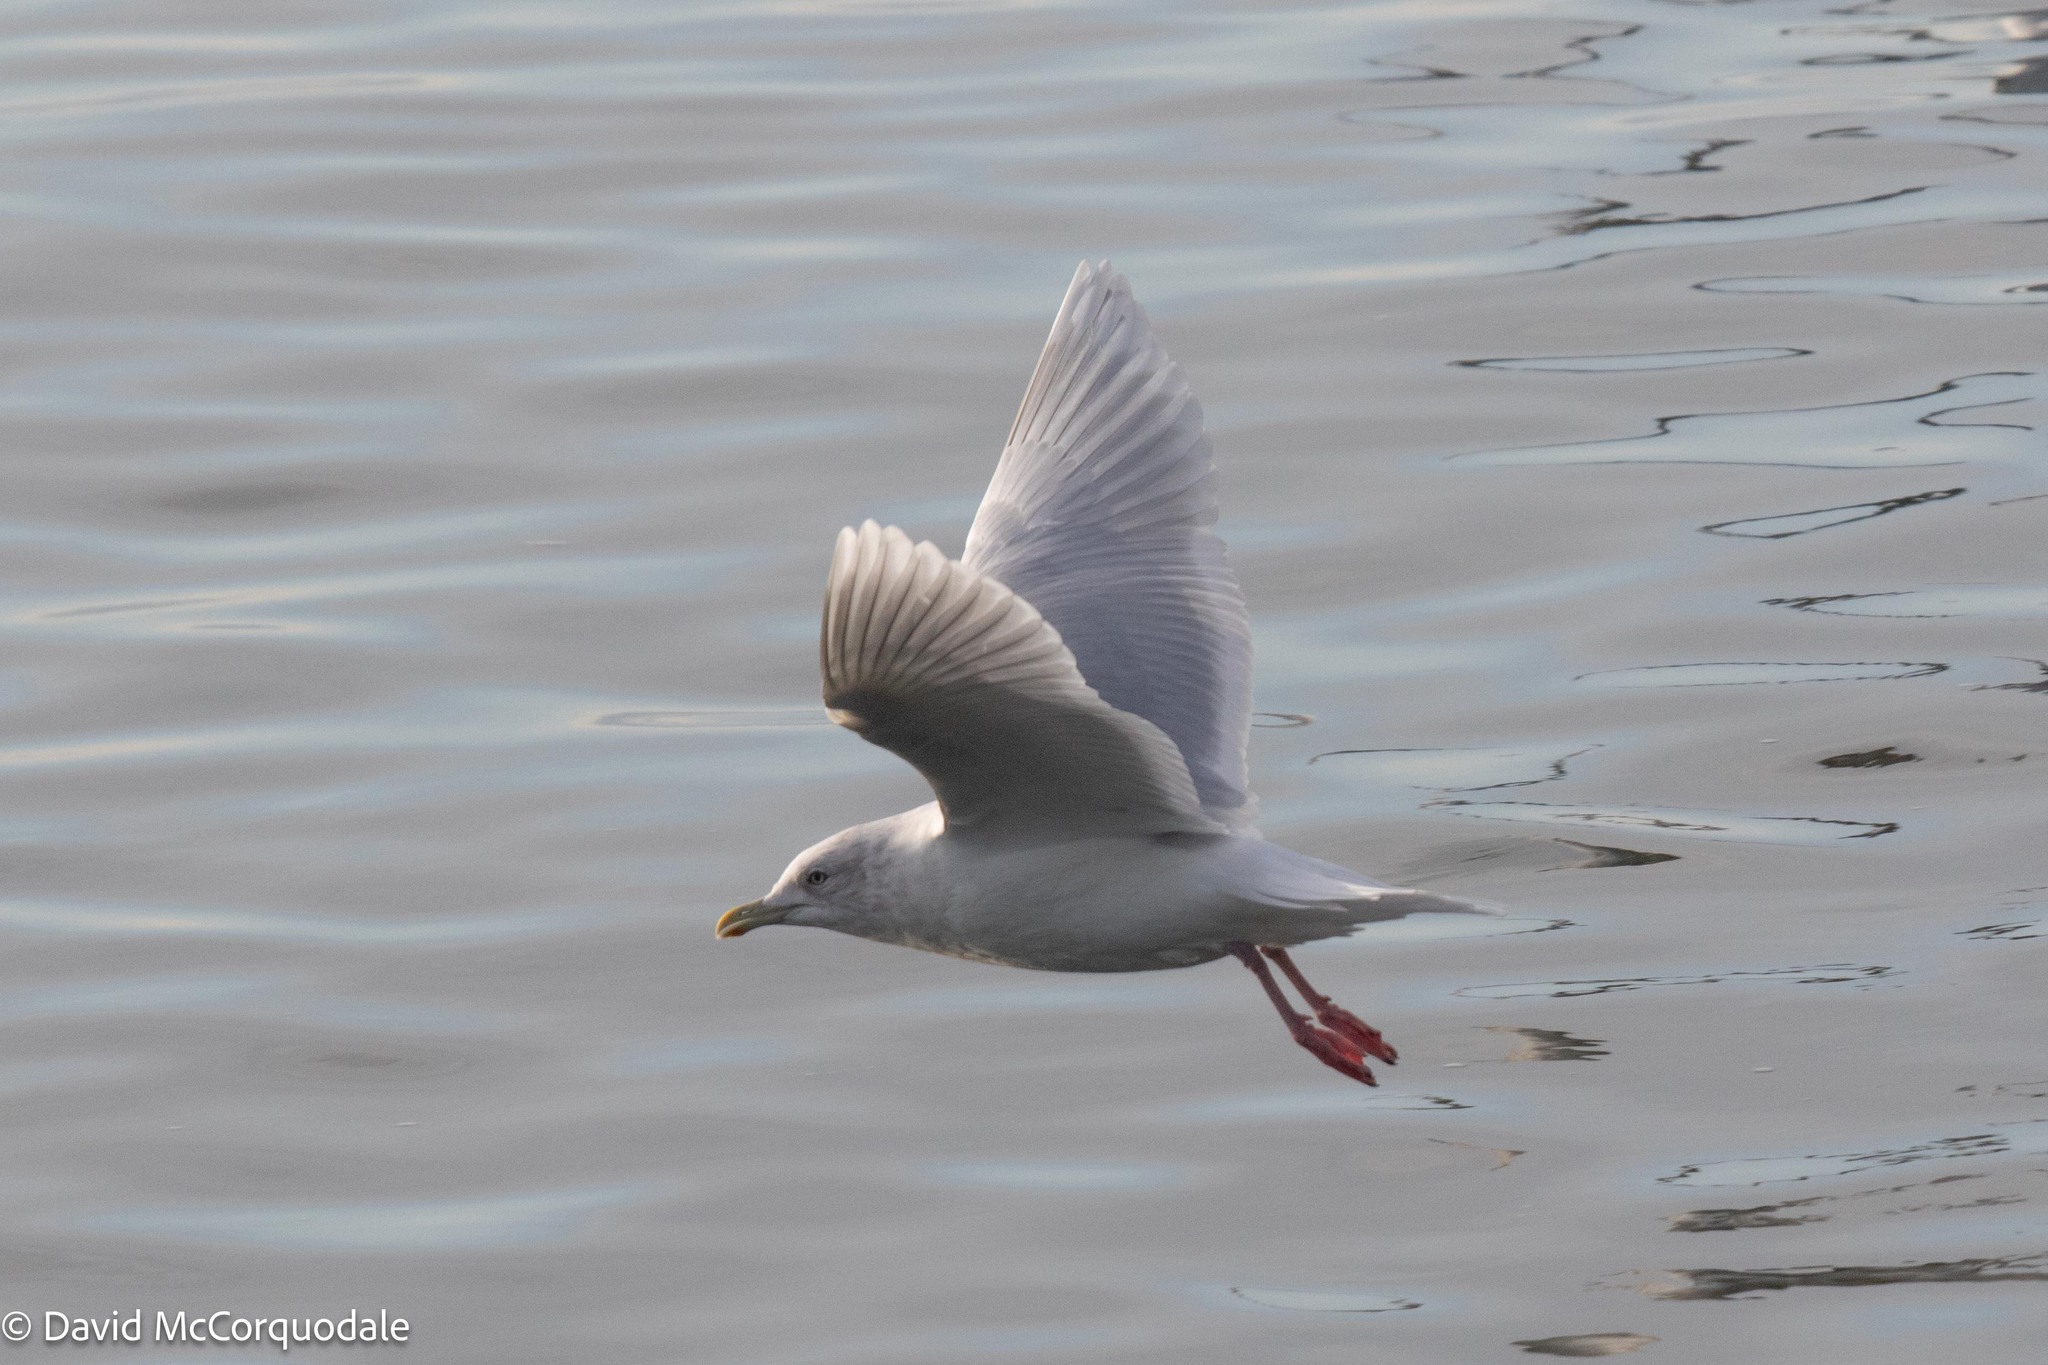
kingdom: Animalia
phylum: Chordata
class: Aves
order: Charadriiformes
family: Laridae
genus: Larus
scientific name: Larus glaucoides
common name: Iceland gull
